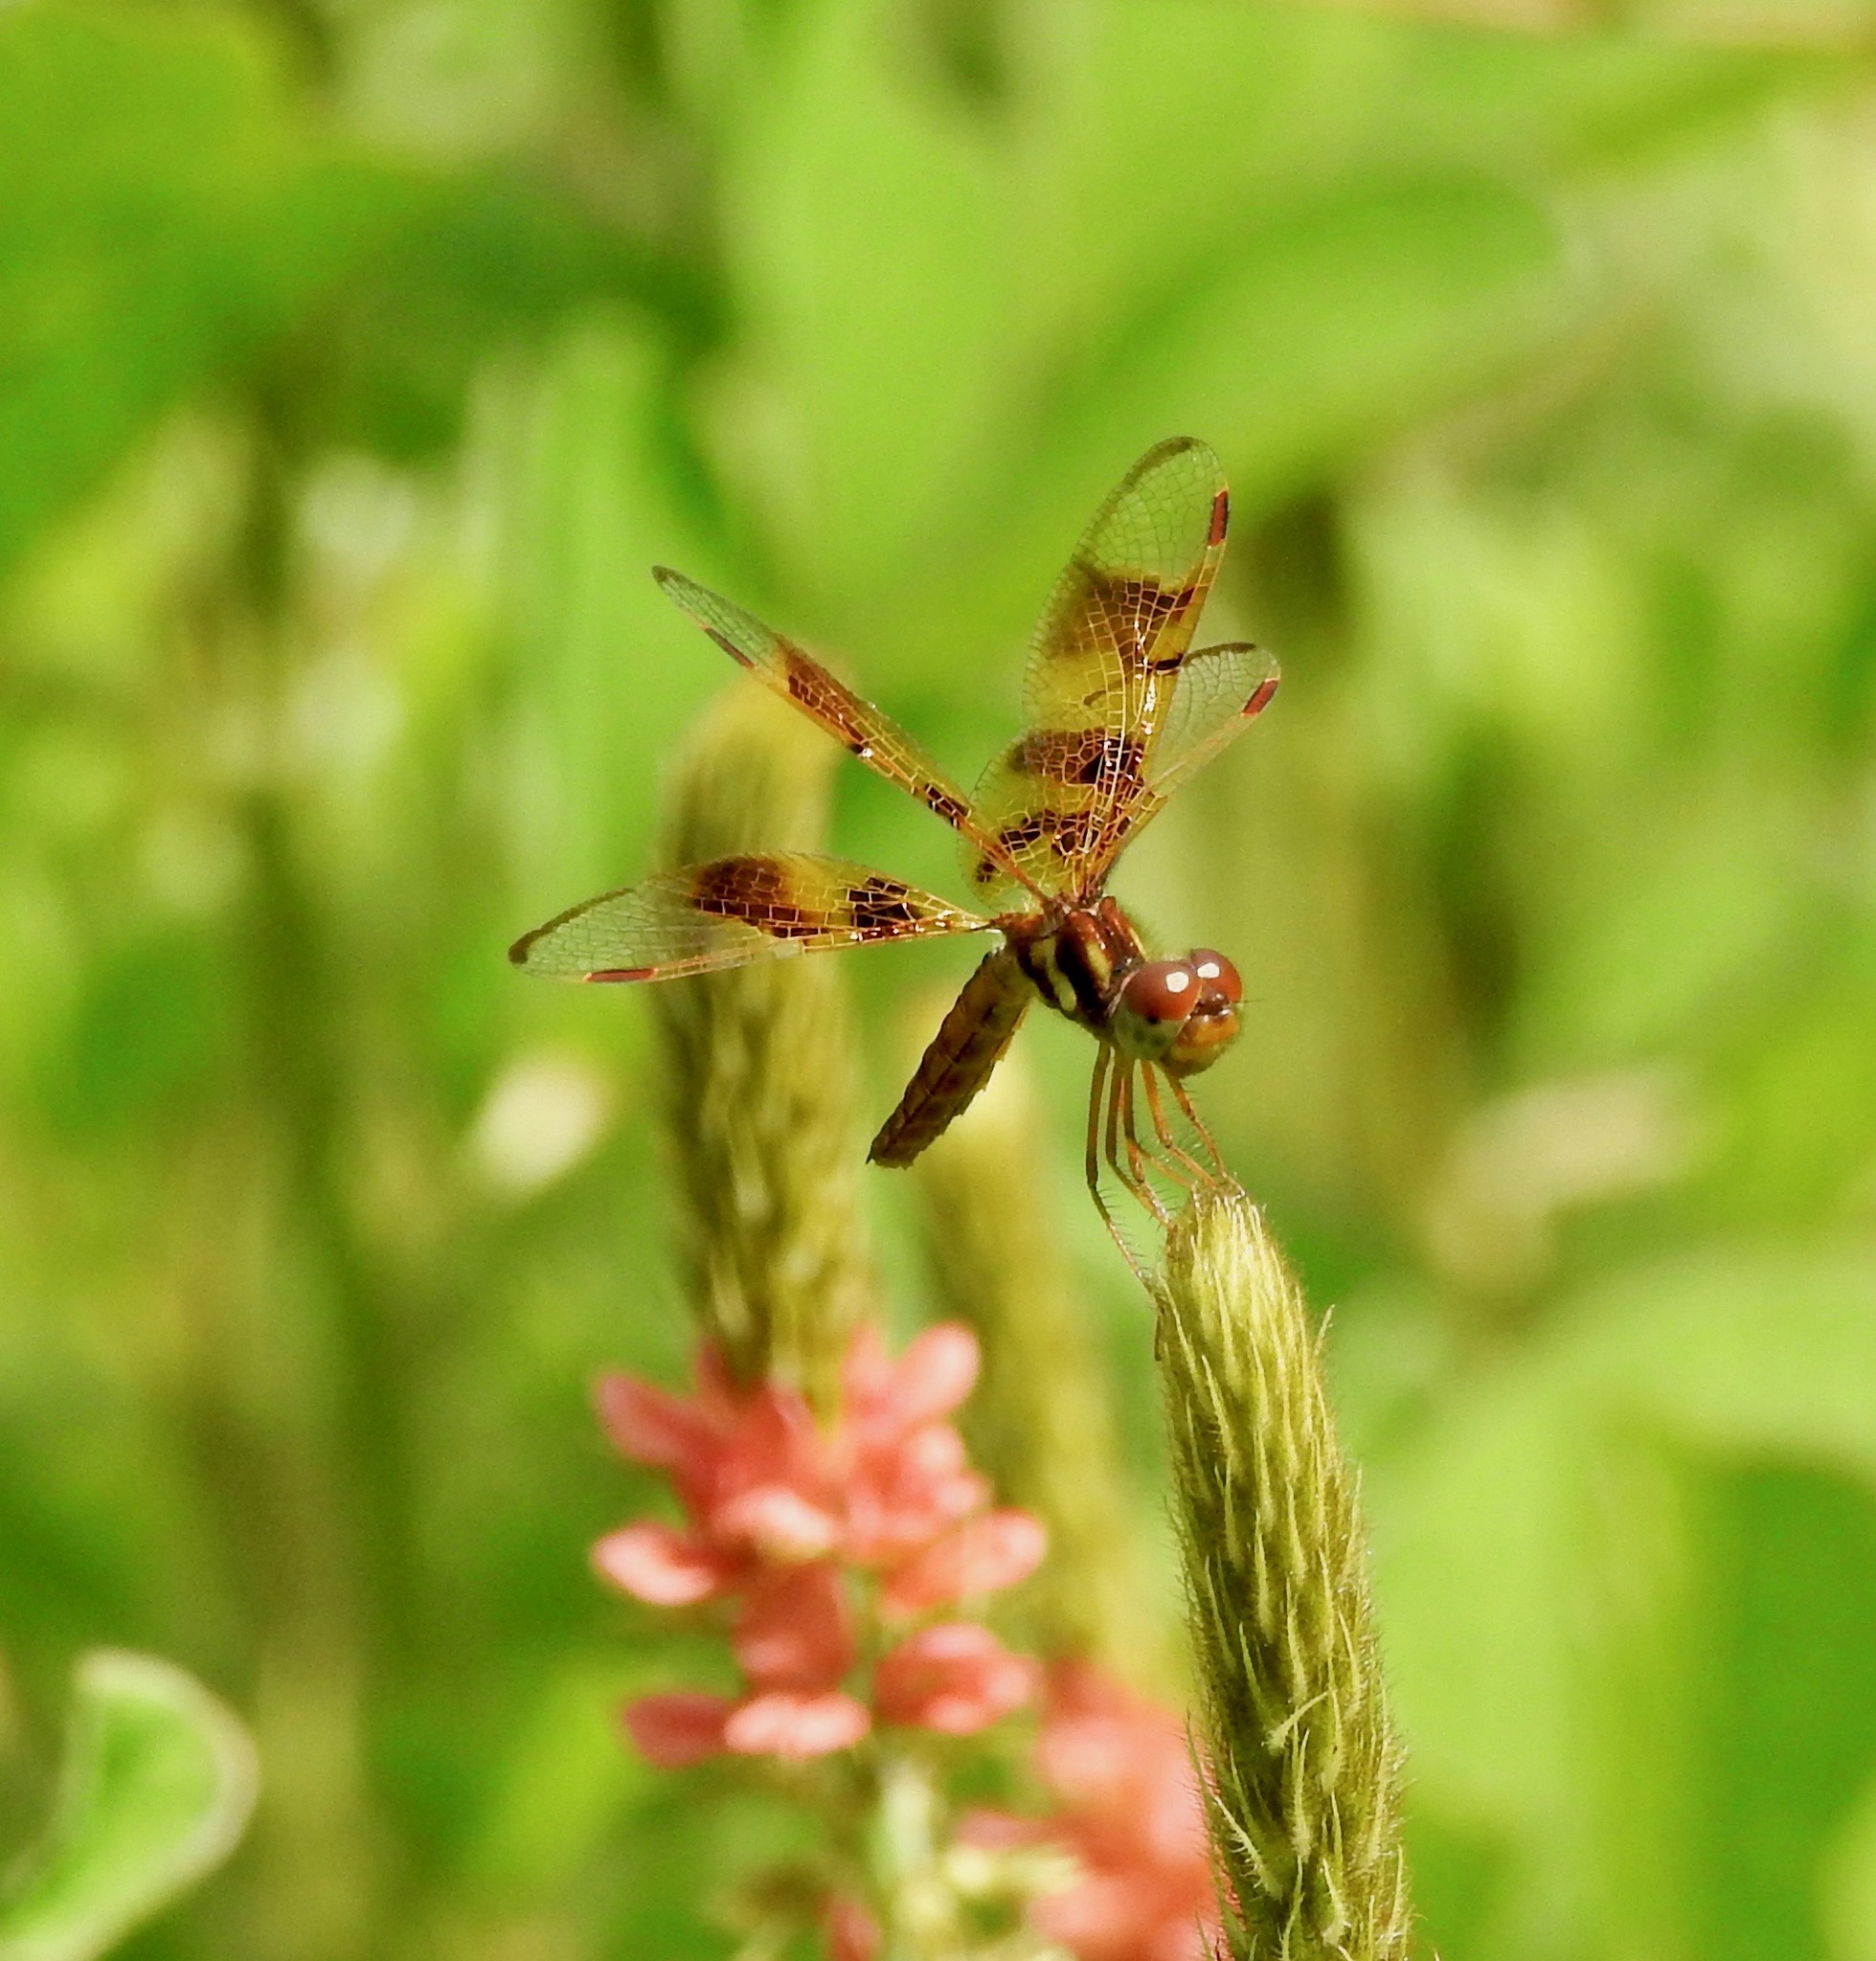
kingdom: Animalia
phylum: Arthropoda
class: Insecta
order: Odonata
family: Libellulidae
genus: Perithemis
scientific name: Perithemis tenera
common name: Eastern amberwing
